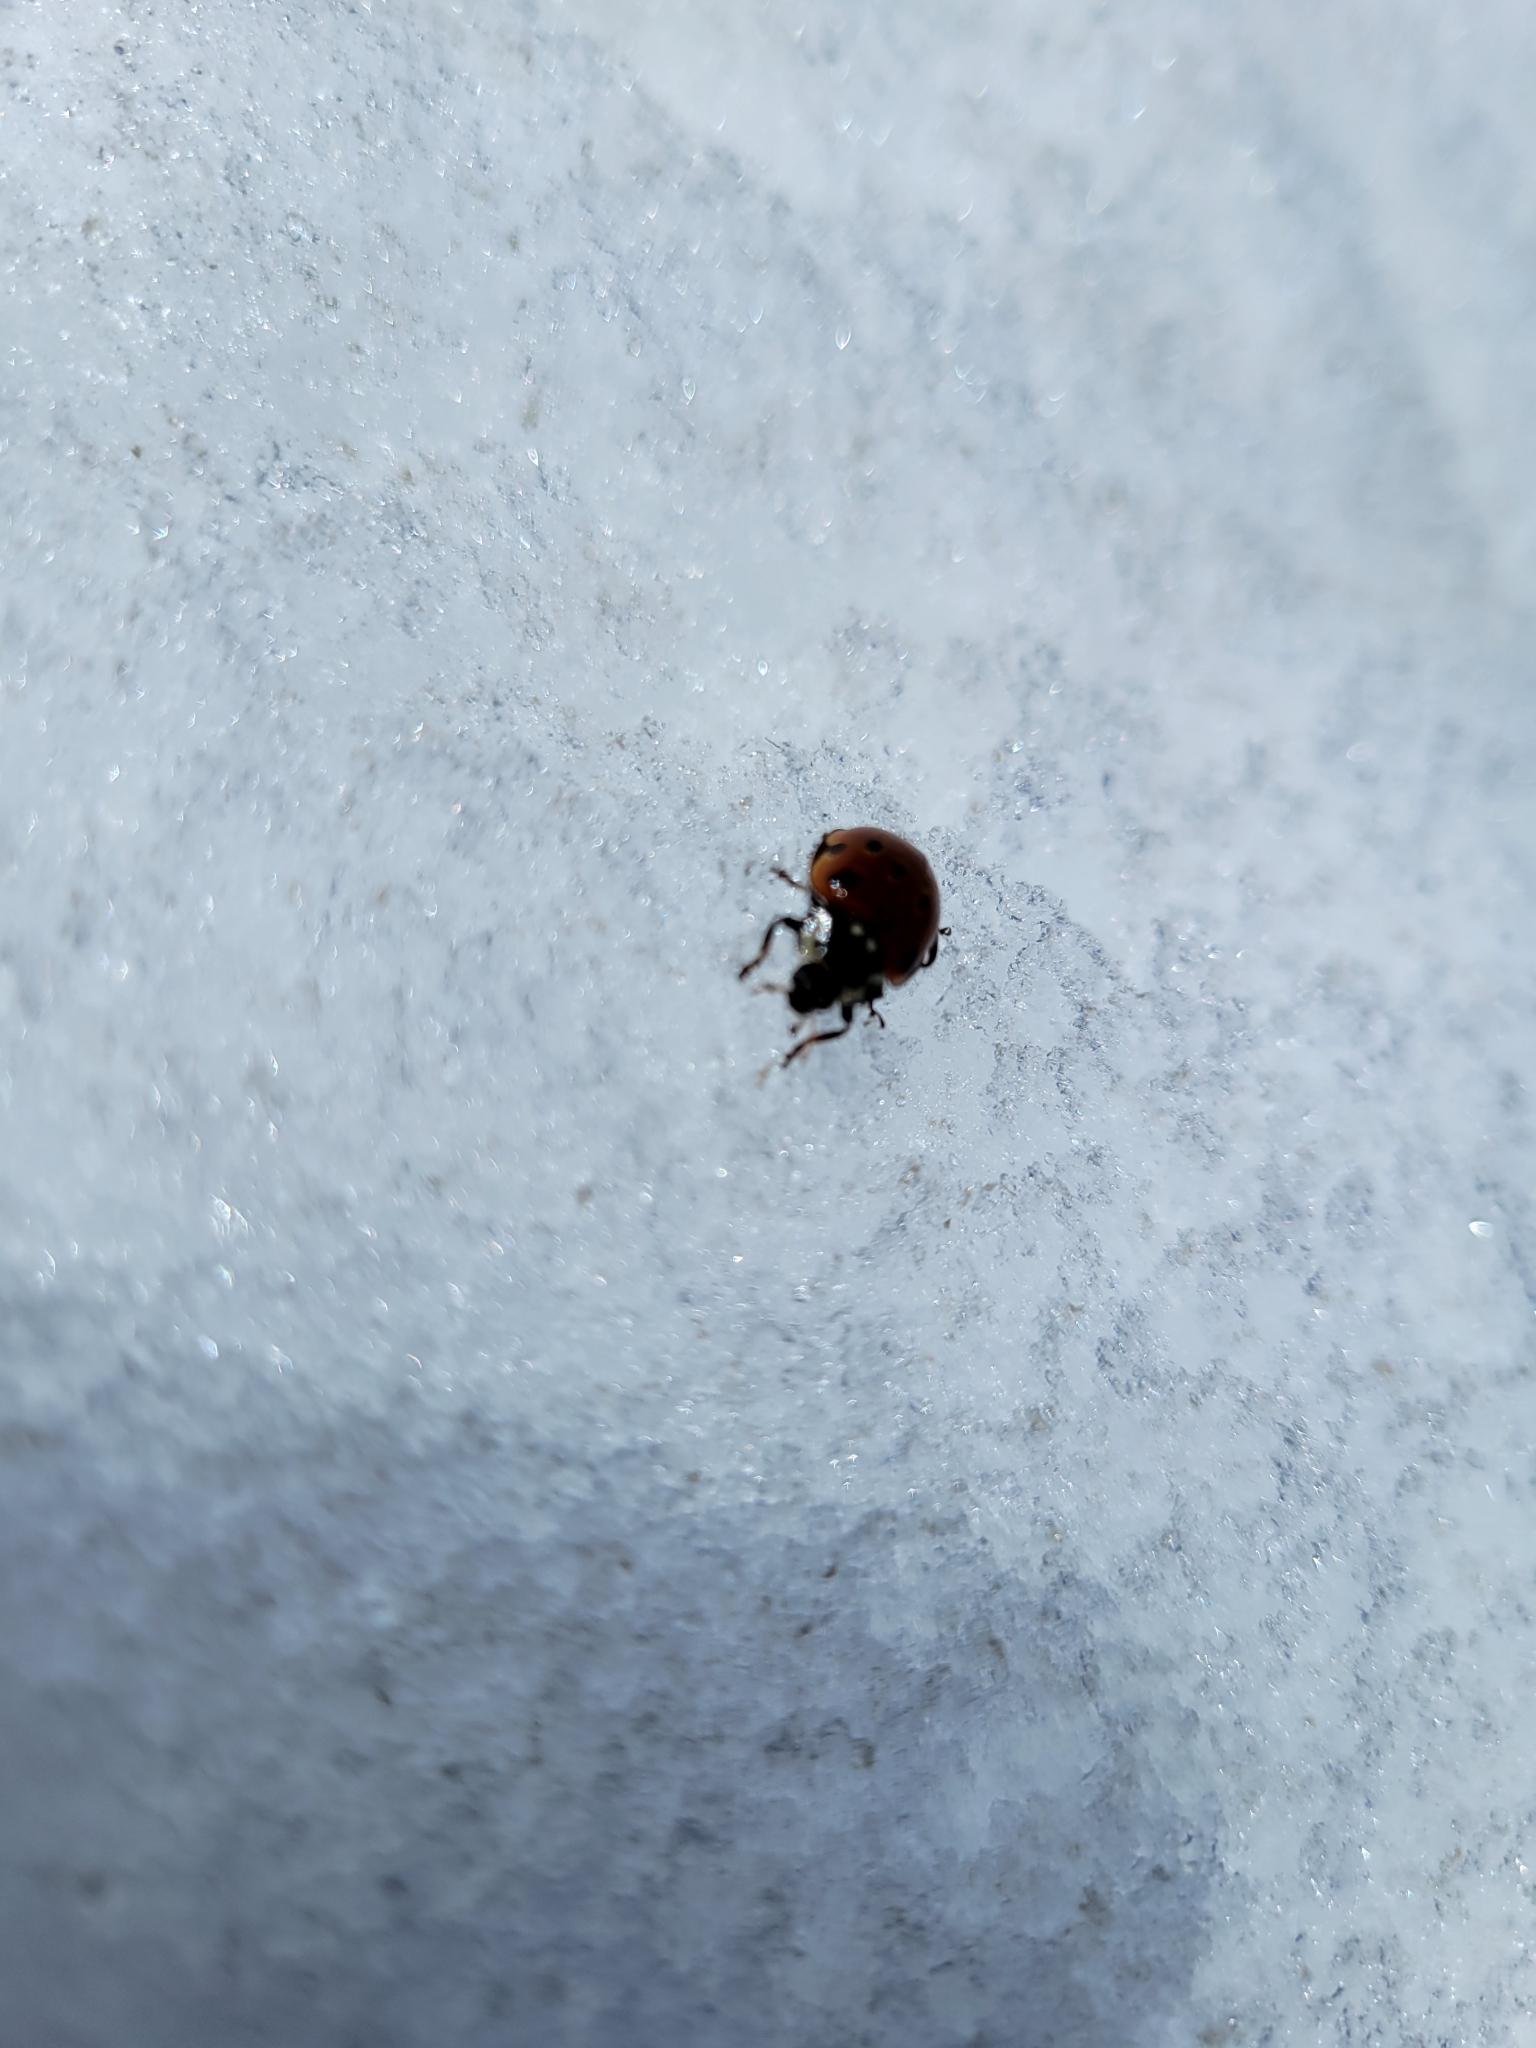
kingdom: Animalia
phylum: Arthropoda
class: Insecta
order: Coleoptera
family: Coccinellidae
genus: Anatis
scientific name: Anatis ocellata
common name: Eyed ladybird
